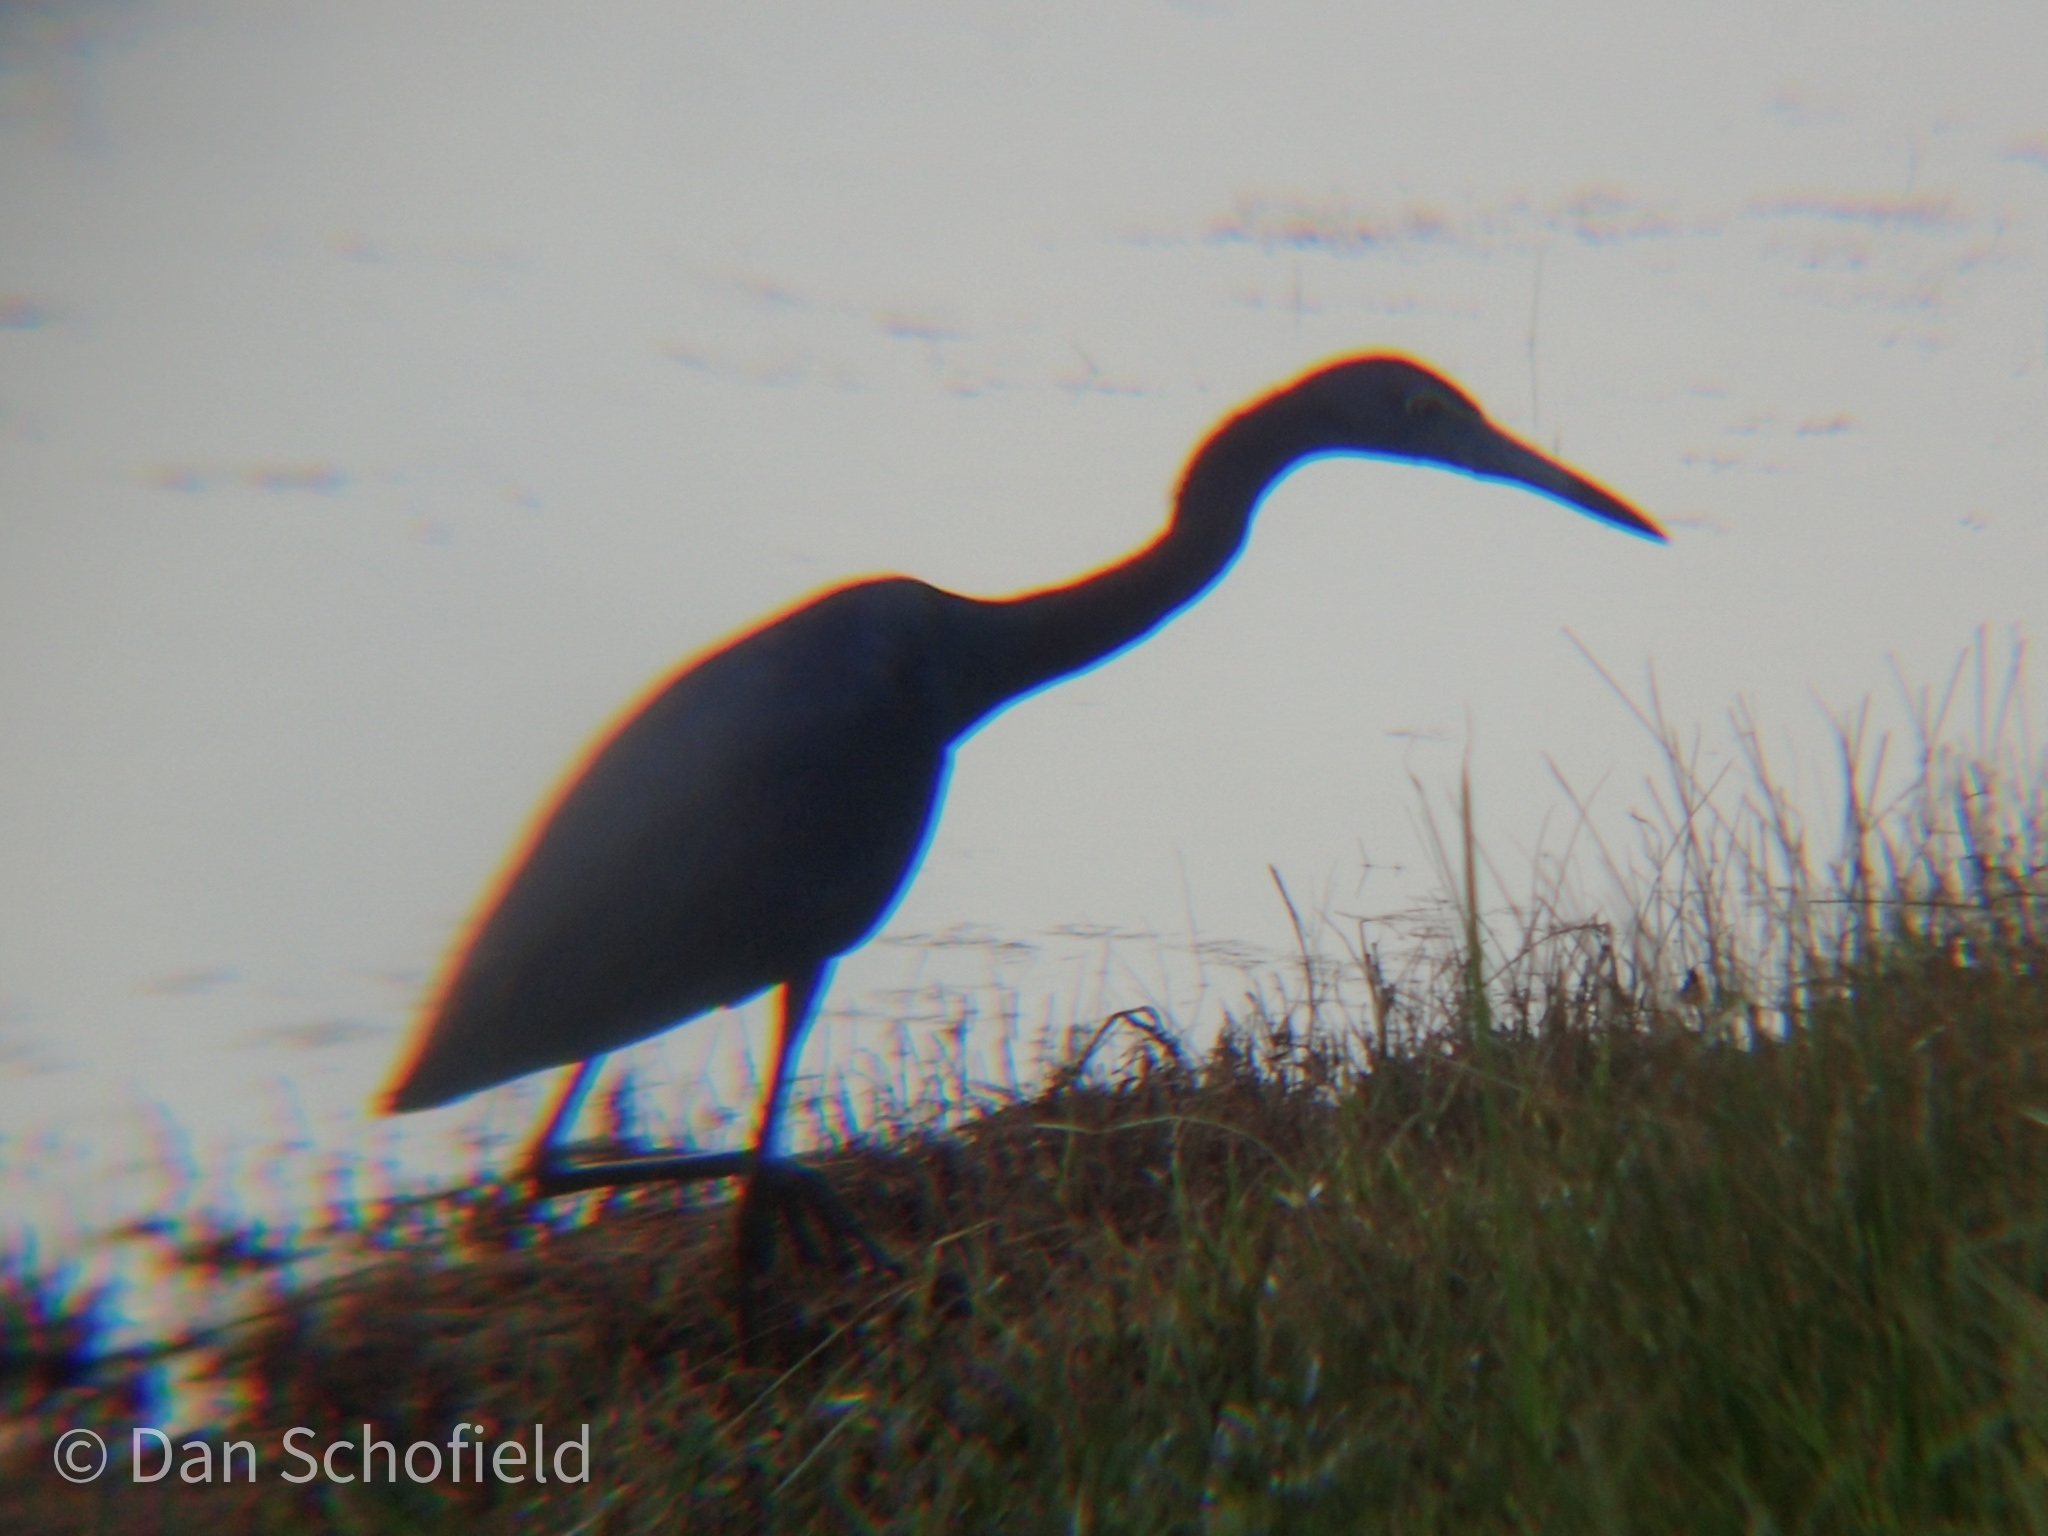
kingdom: Animalia
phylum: Chordata
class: Aves
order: Pelecaniformes
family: Ardeidae
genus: Egretta
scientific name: Egretta caerulea
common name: Little blue heron
